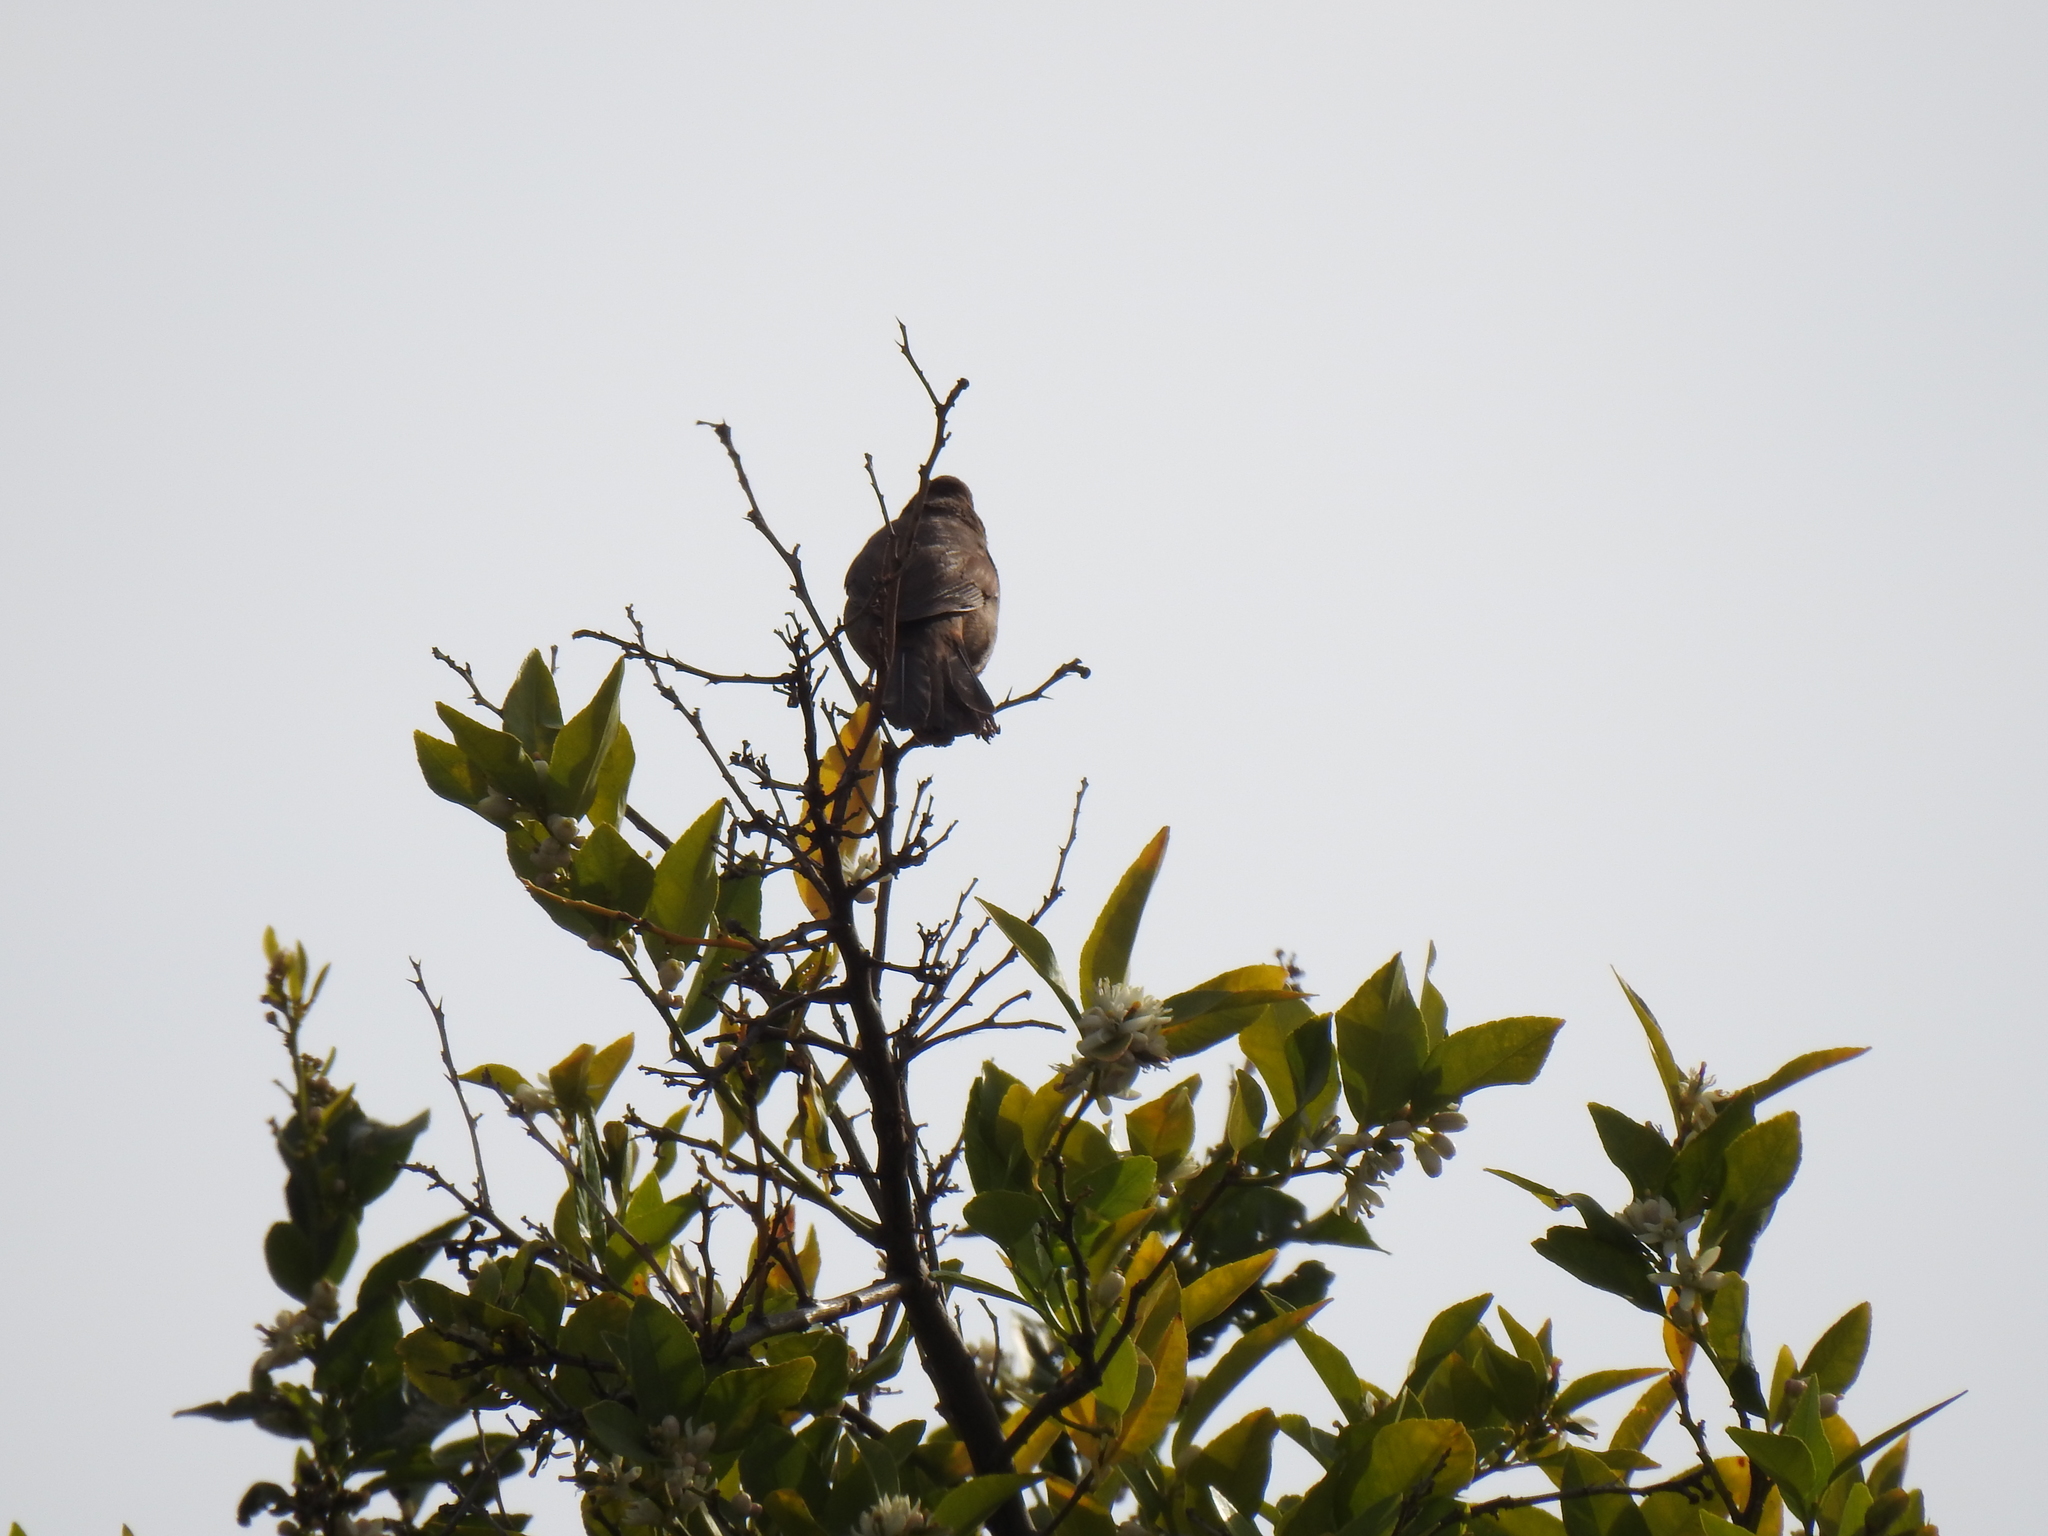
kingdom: Animalia
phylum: Chordata
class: Aves
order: Passeriformes
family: Passerellidae
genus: Melozone
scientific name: Melozone crissalis
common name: California towhee
